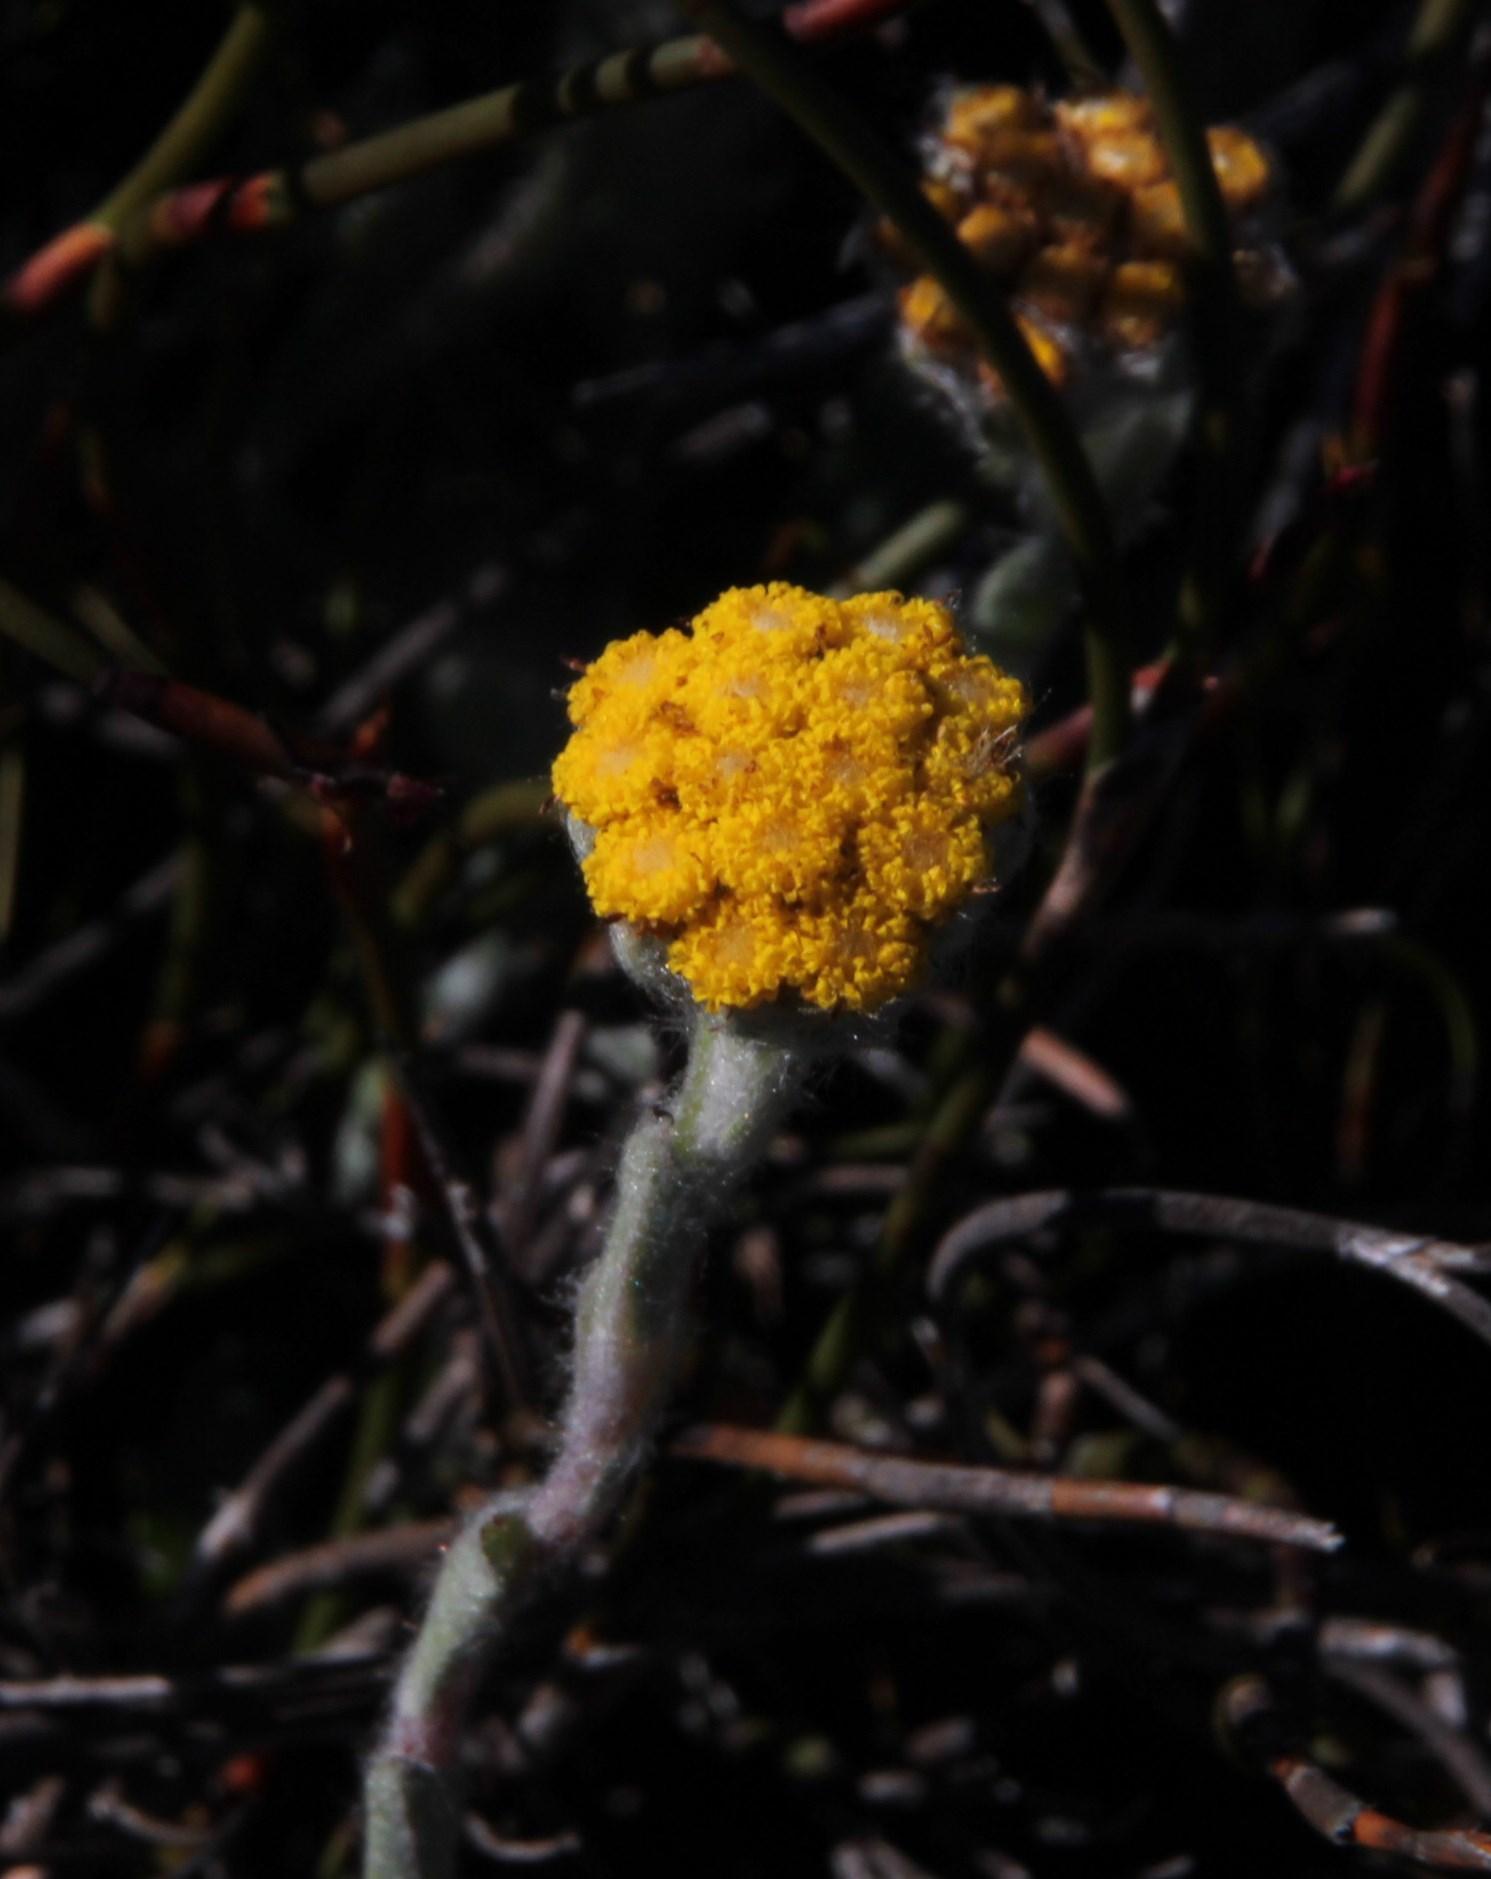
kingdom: Plantae
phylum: Tracheophyta
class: Magnoliopsida
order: Asterales
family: Asteraceae
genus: Helichrysum
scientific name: Helichrysum catipes
